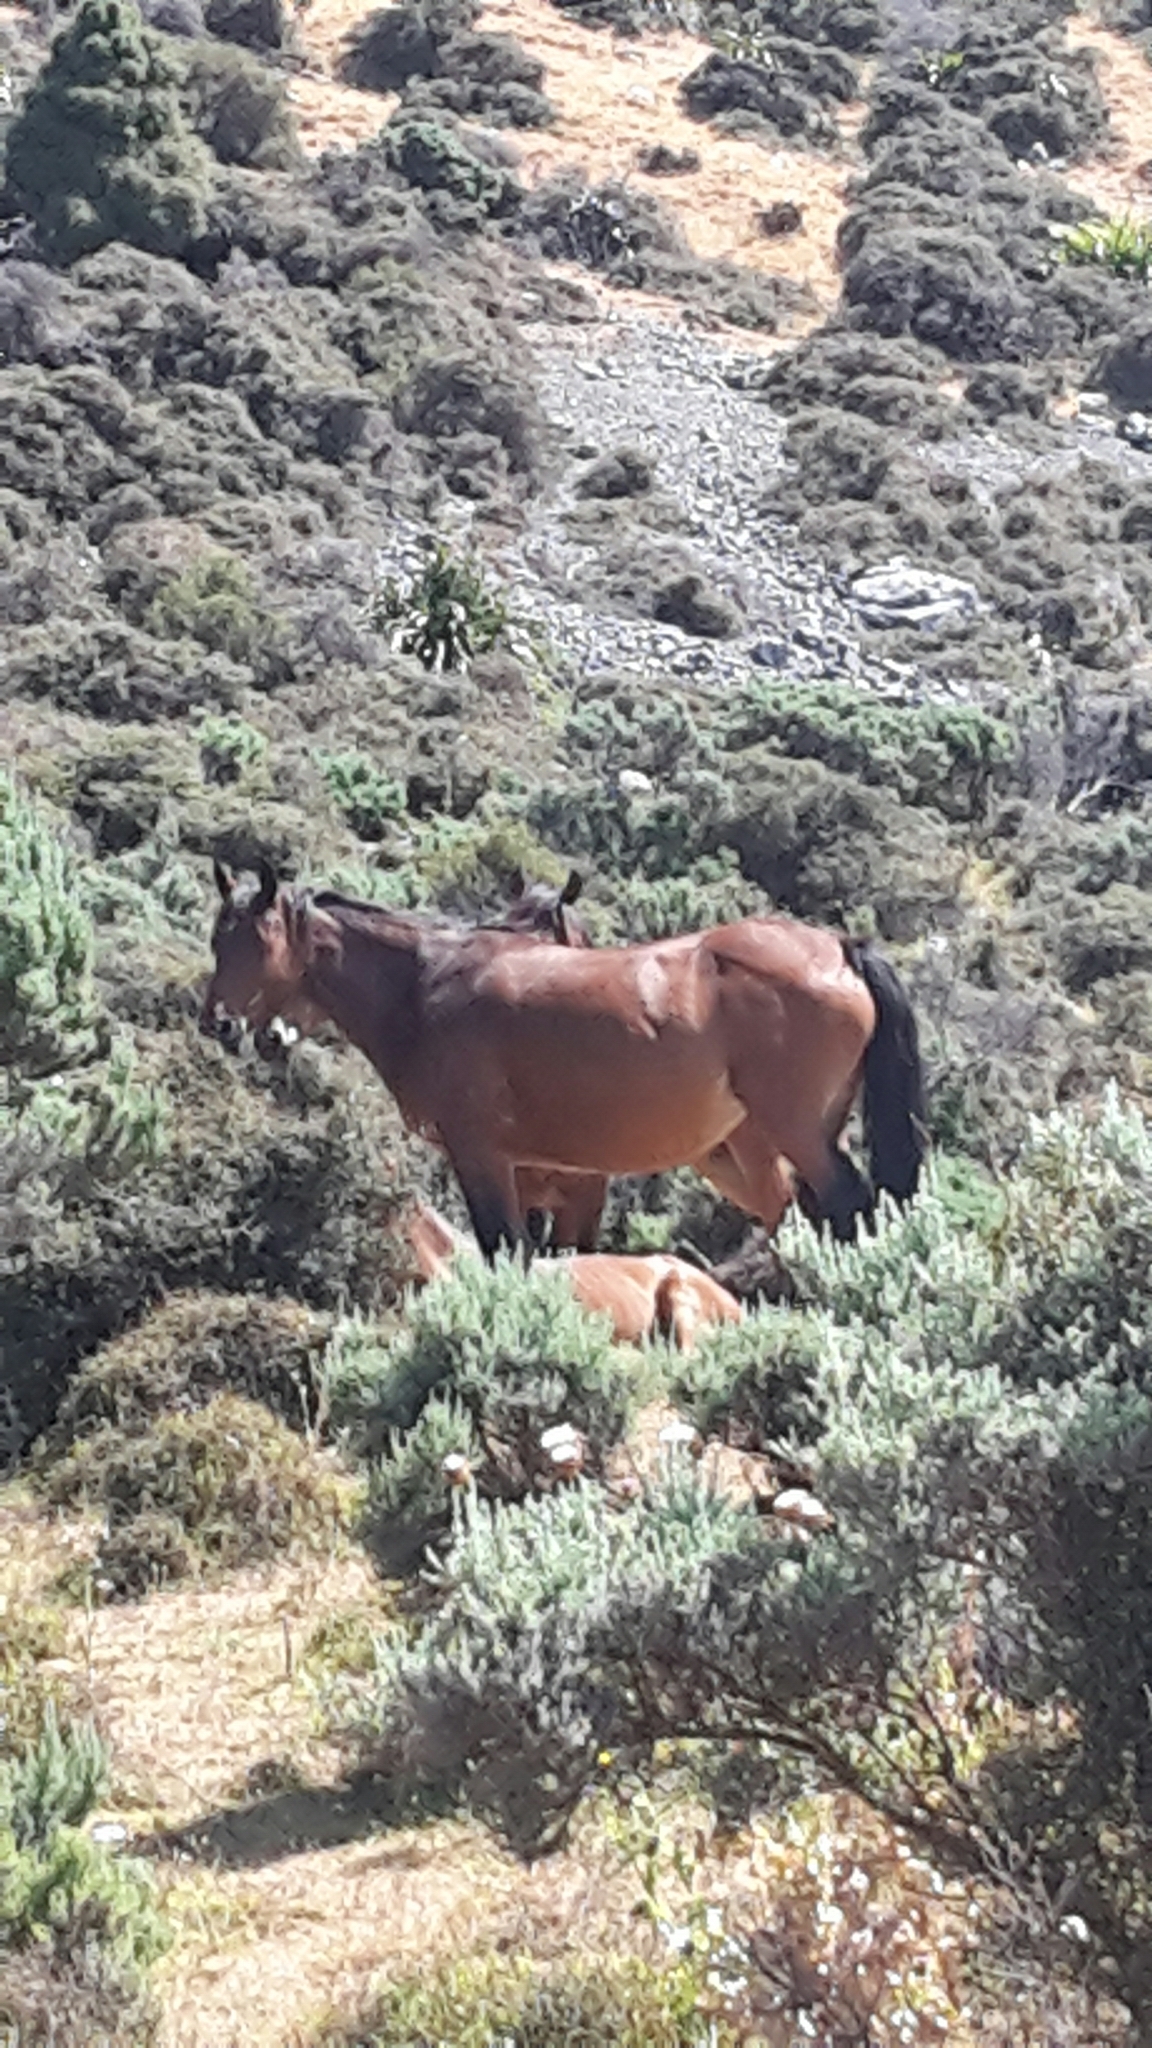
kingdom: Animalia
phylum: Chordata
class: Mammalia
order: Perissodactyla
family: Equidae
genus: Equus
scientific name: Equus caballus
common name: Horse
